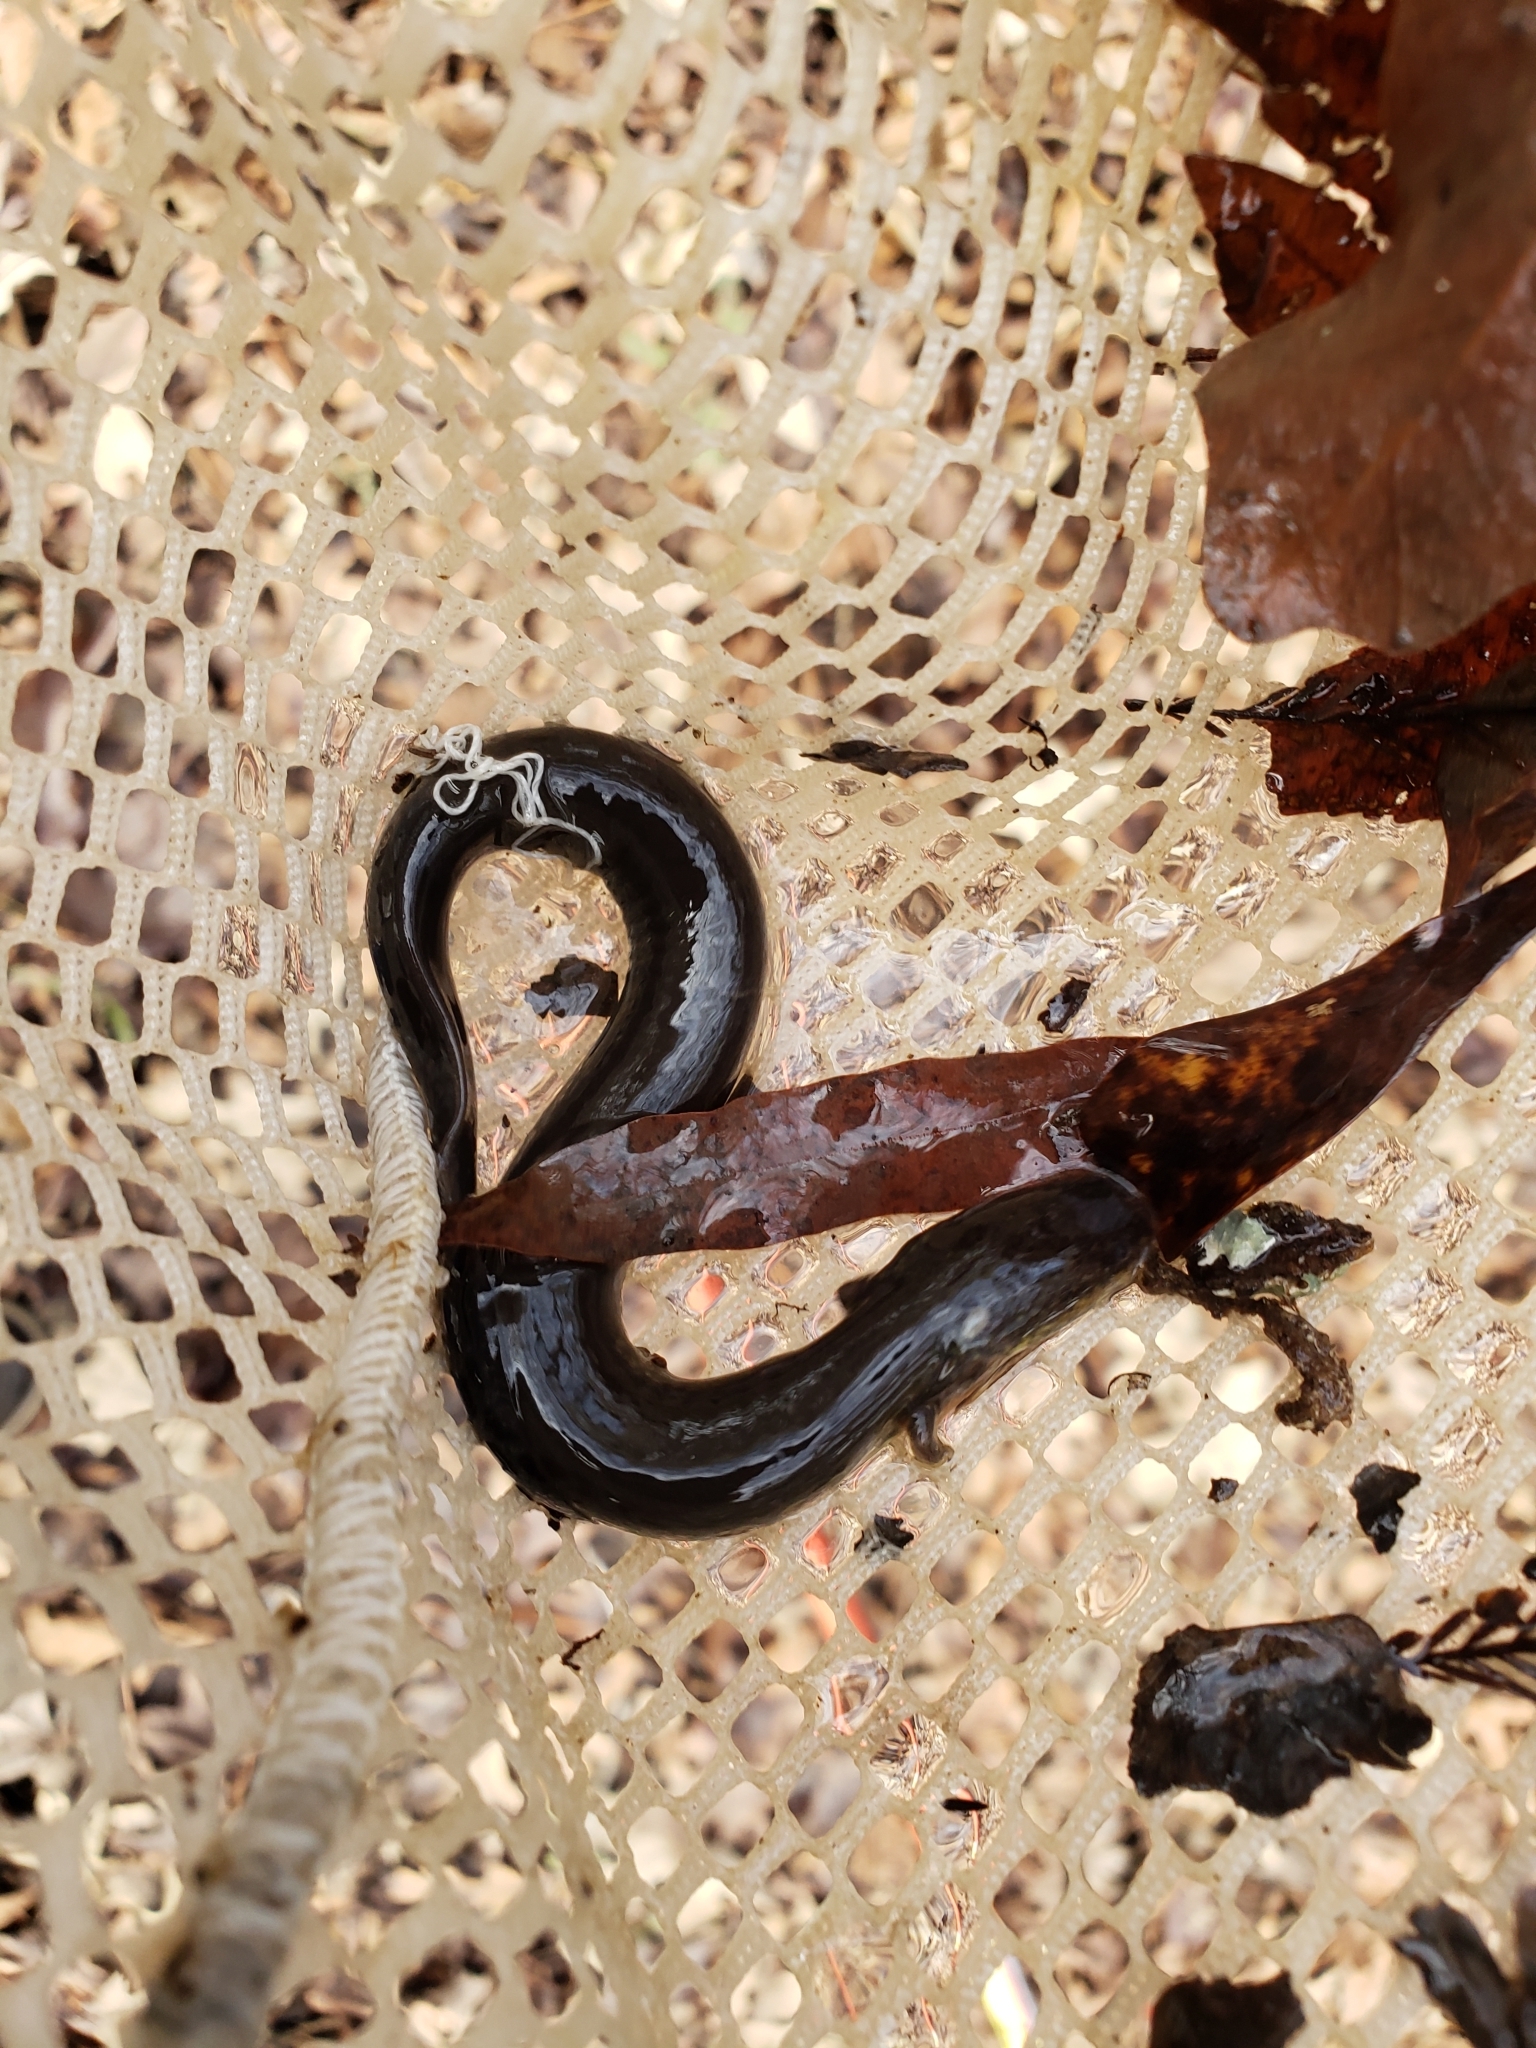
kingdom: Animalia
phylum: Chordata
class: Amphibia
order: Caudata
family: Sirenidae
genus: Siren
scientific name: Siren intermedia
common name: Lesser siren
